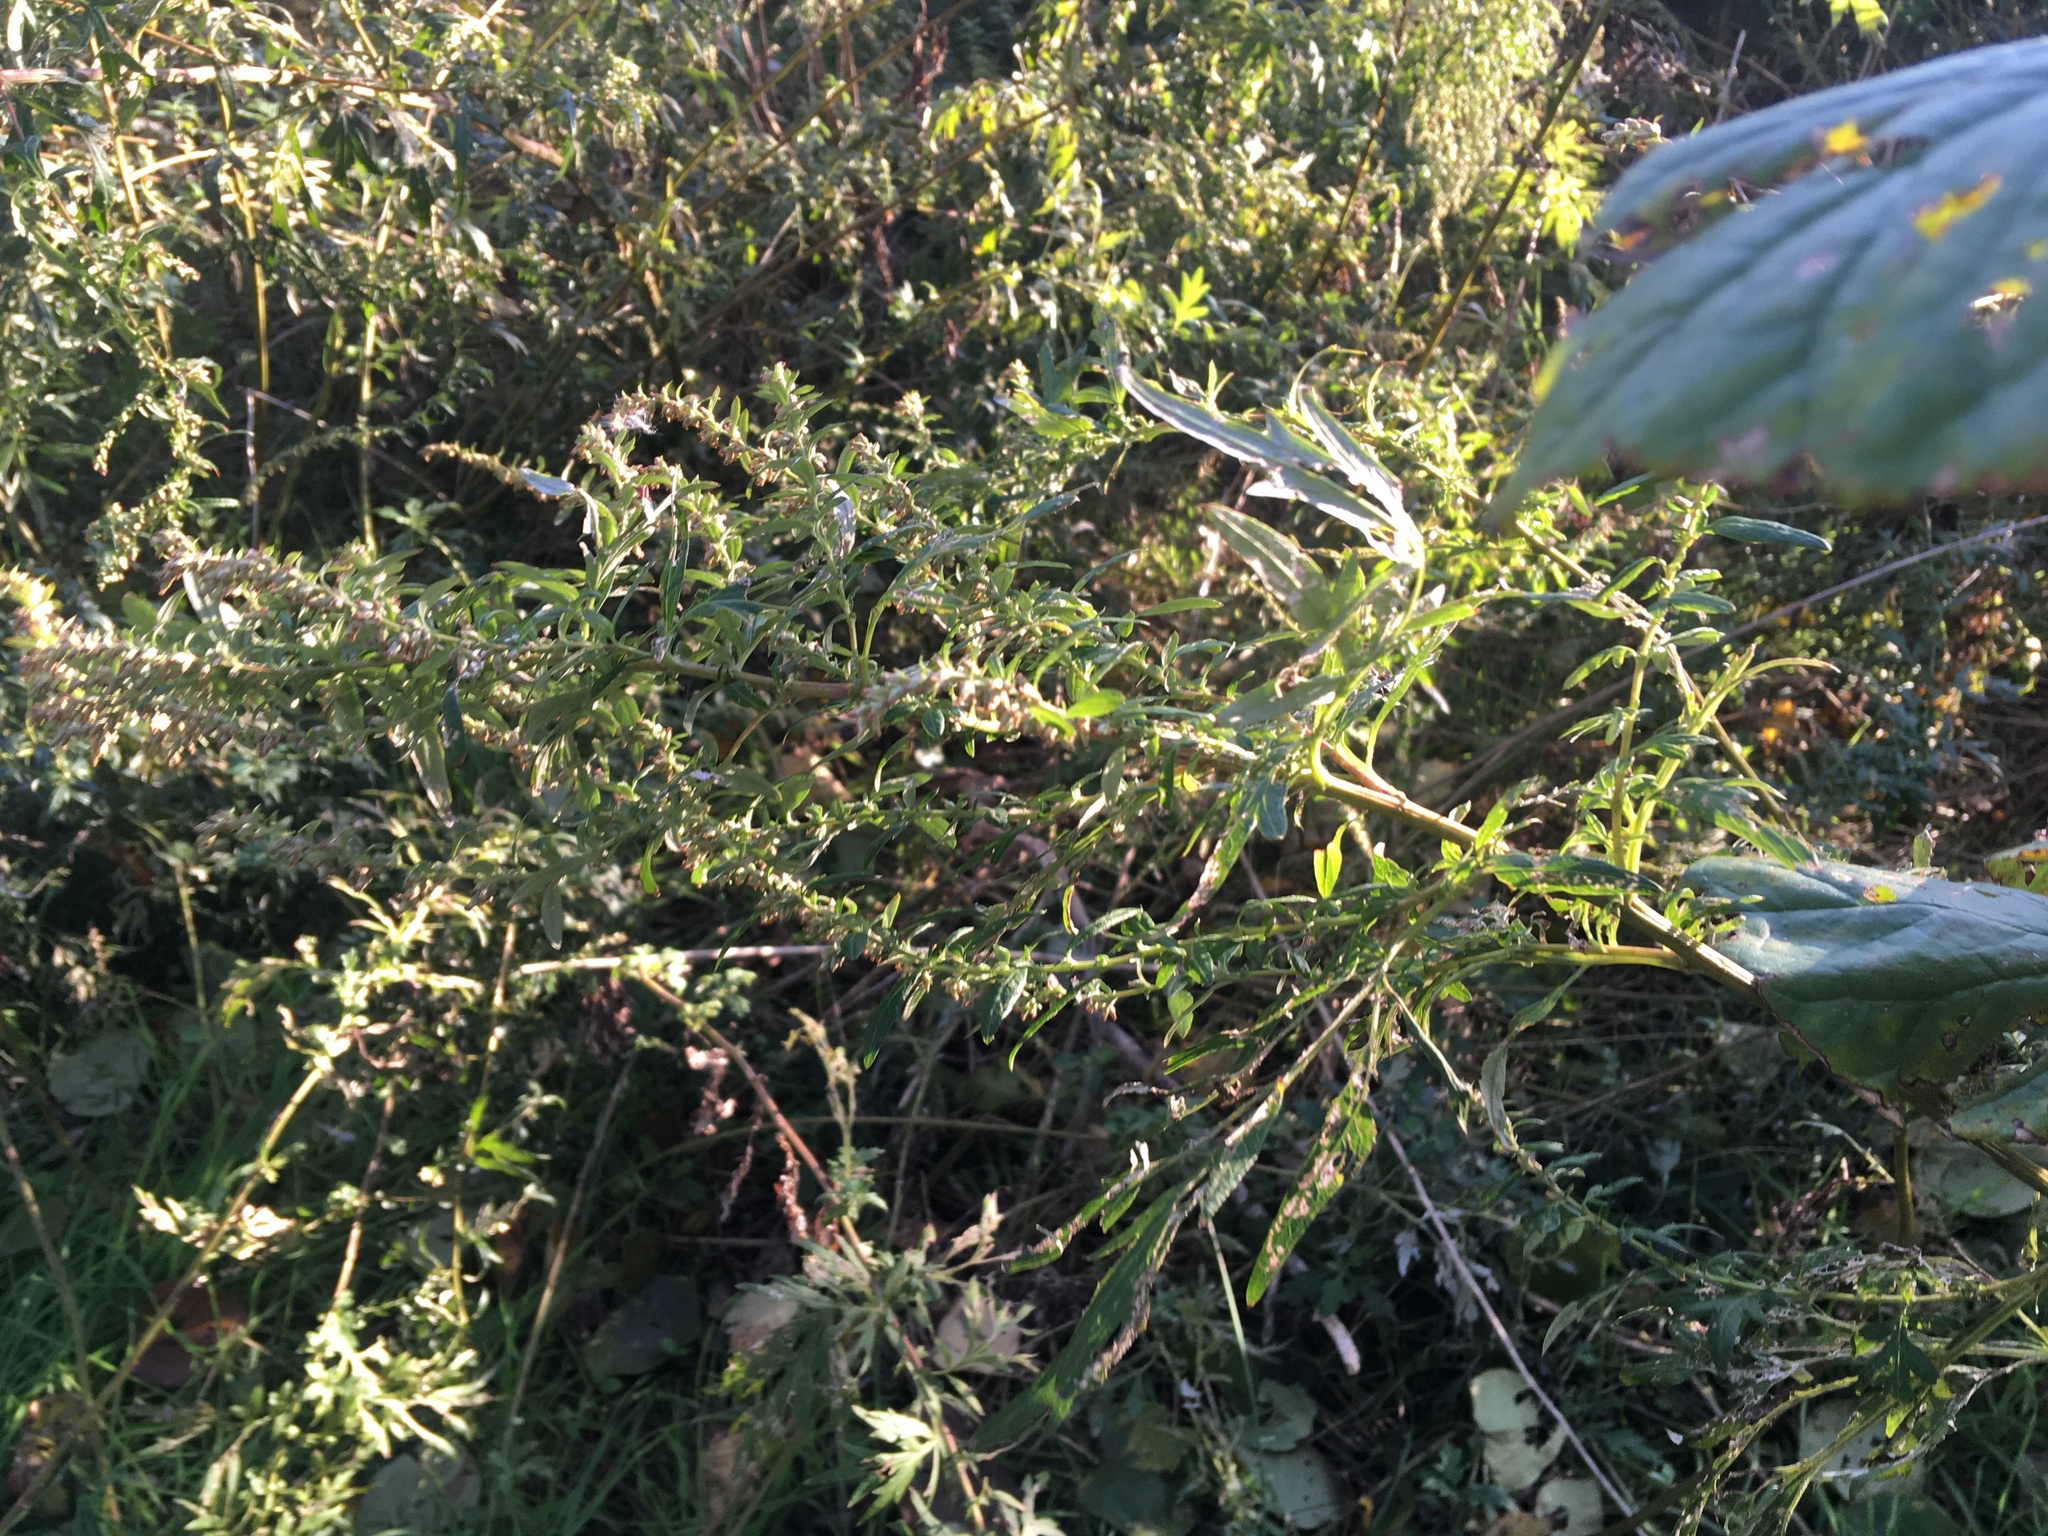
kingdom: Plantae
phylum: Tracheophyta
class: Magnoliopsida
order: Asterales
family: Asteraceae
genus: Artemisia
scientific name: Artemisia vulgaris
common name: Mugwort
